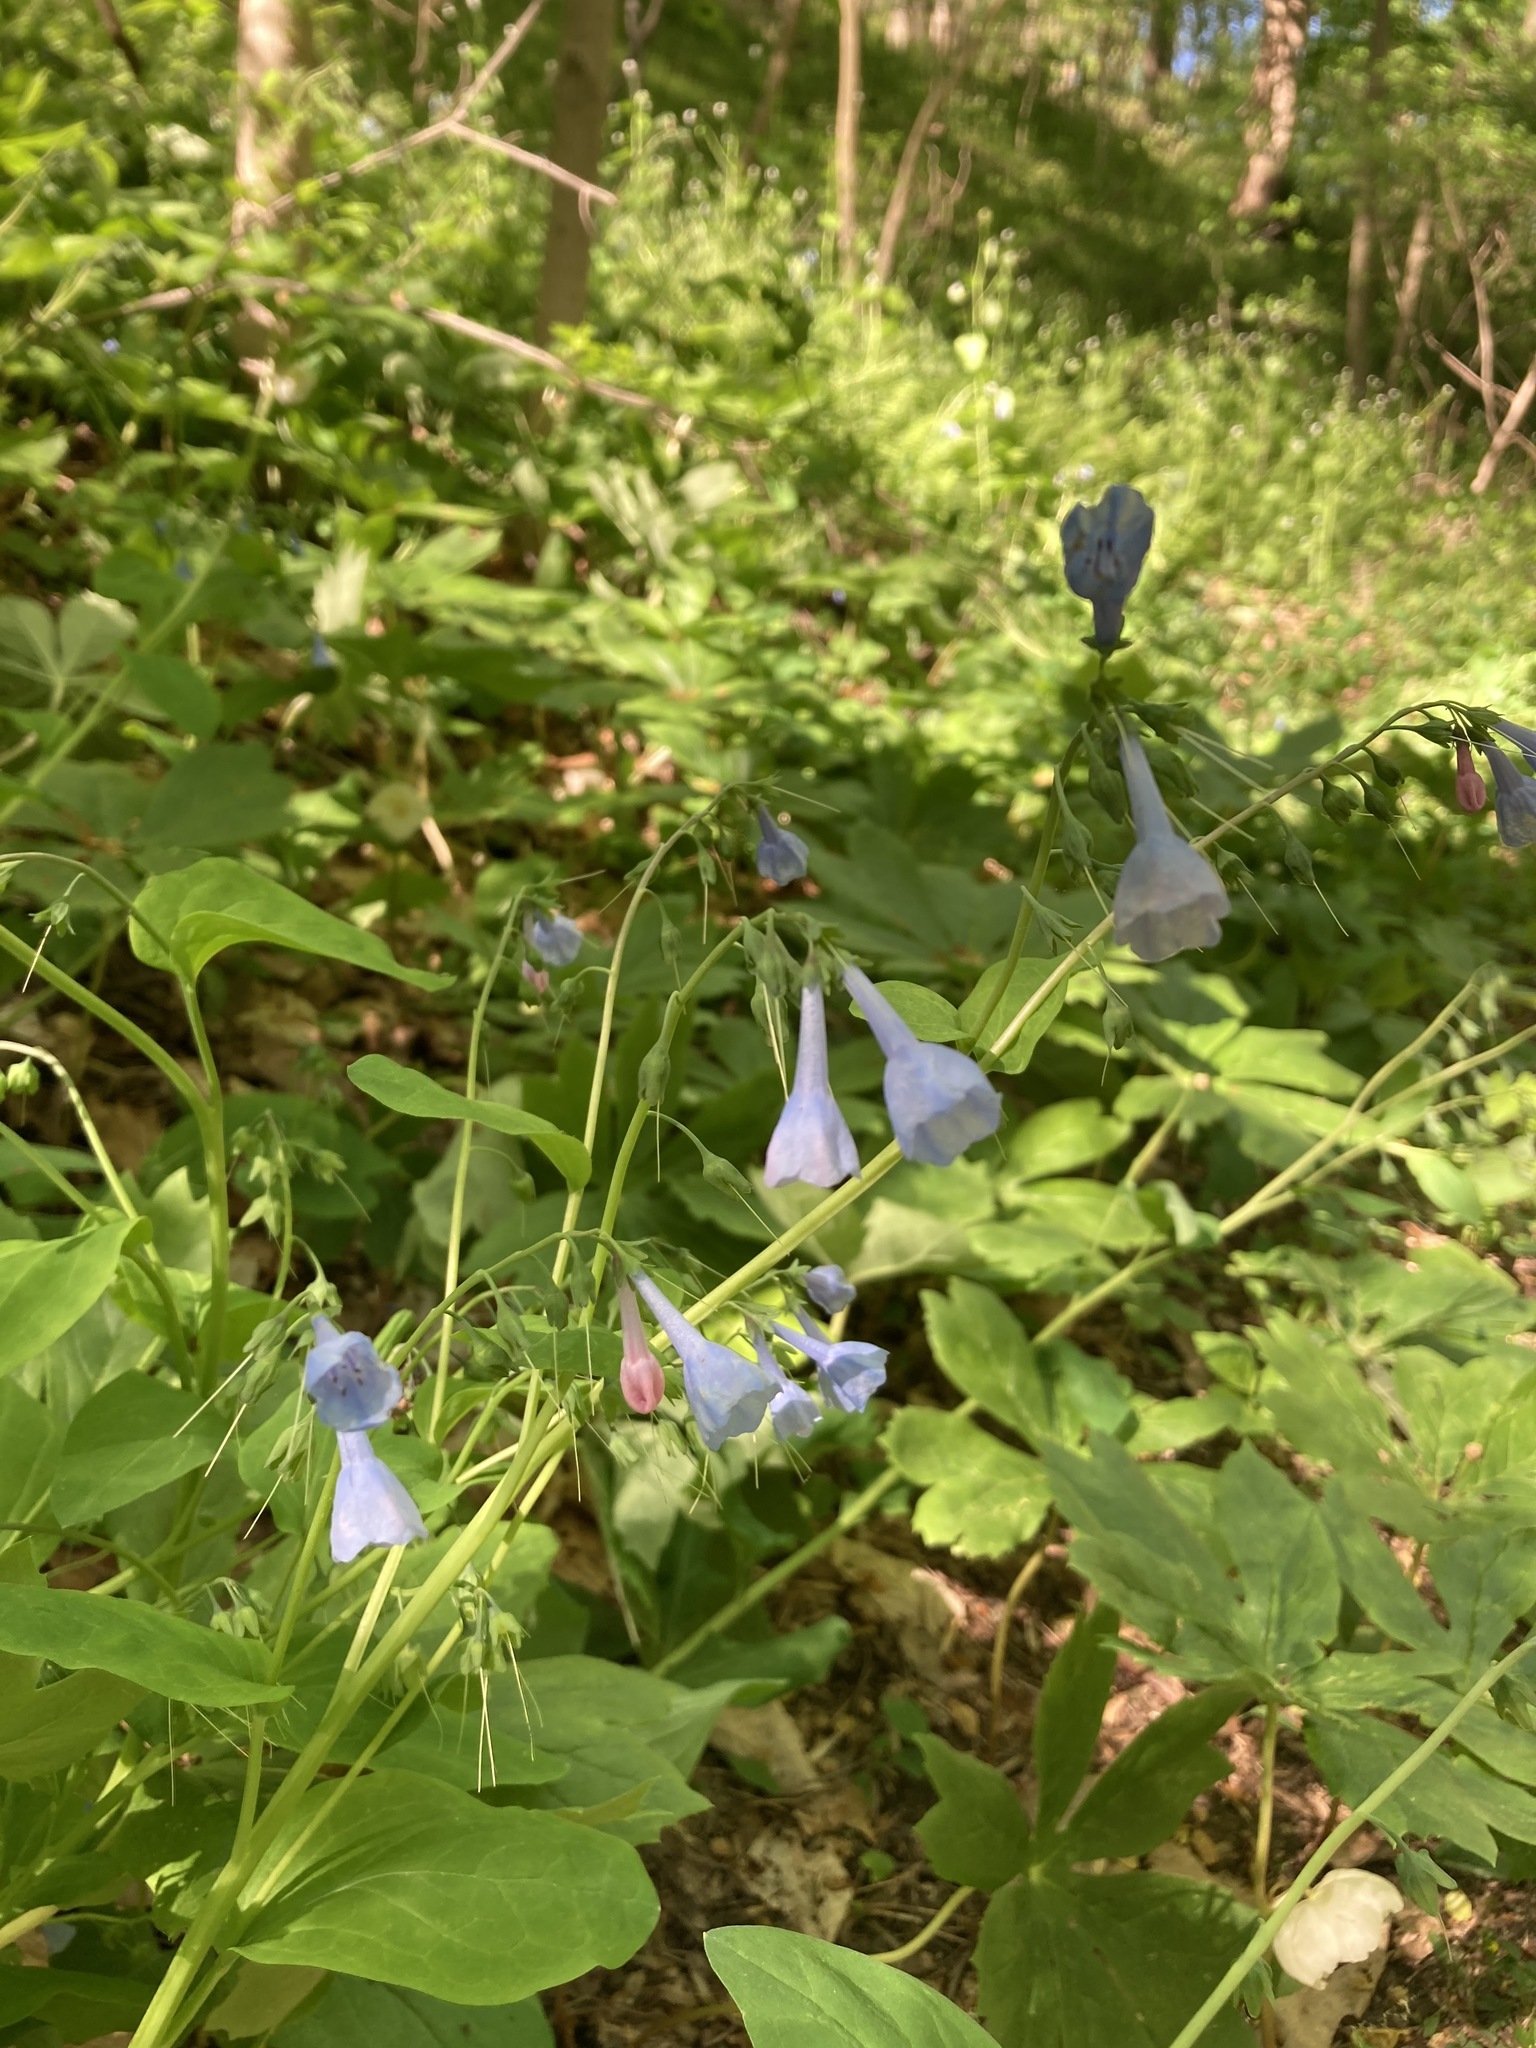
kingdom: Plantae
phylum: Tracheophyta
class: Magnoliopsida
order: Boraginales
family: Boraginaceae
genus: Mertensia
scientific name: Mertensia virginica
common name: Virginia bluebells
